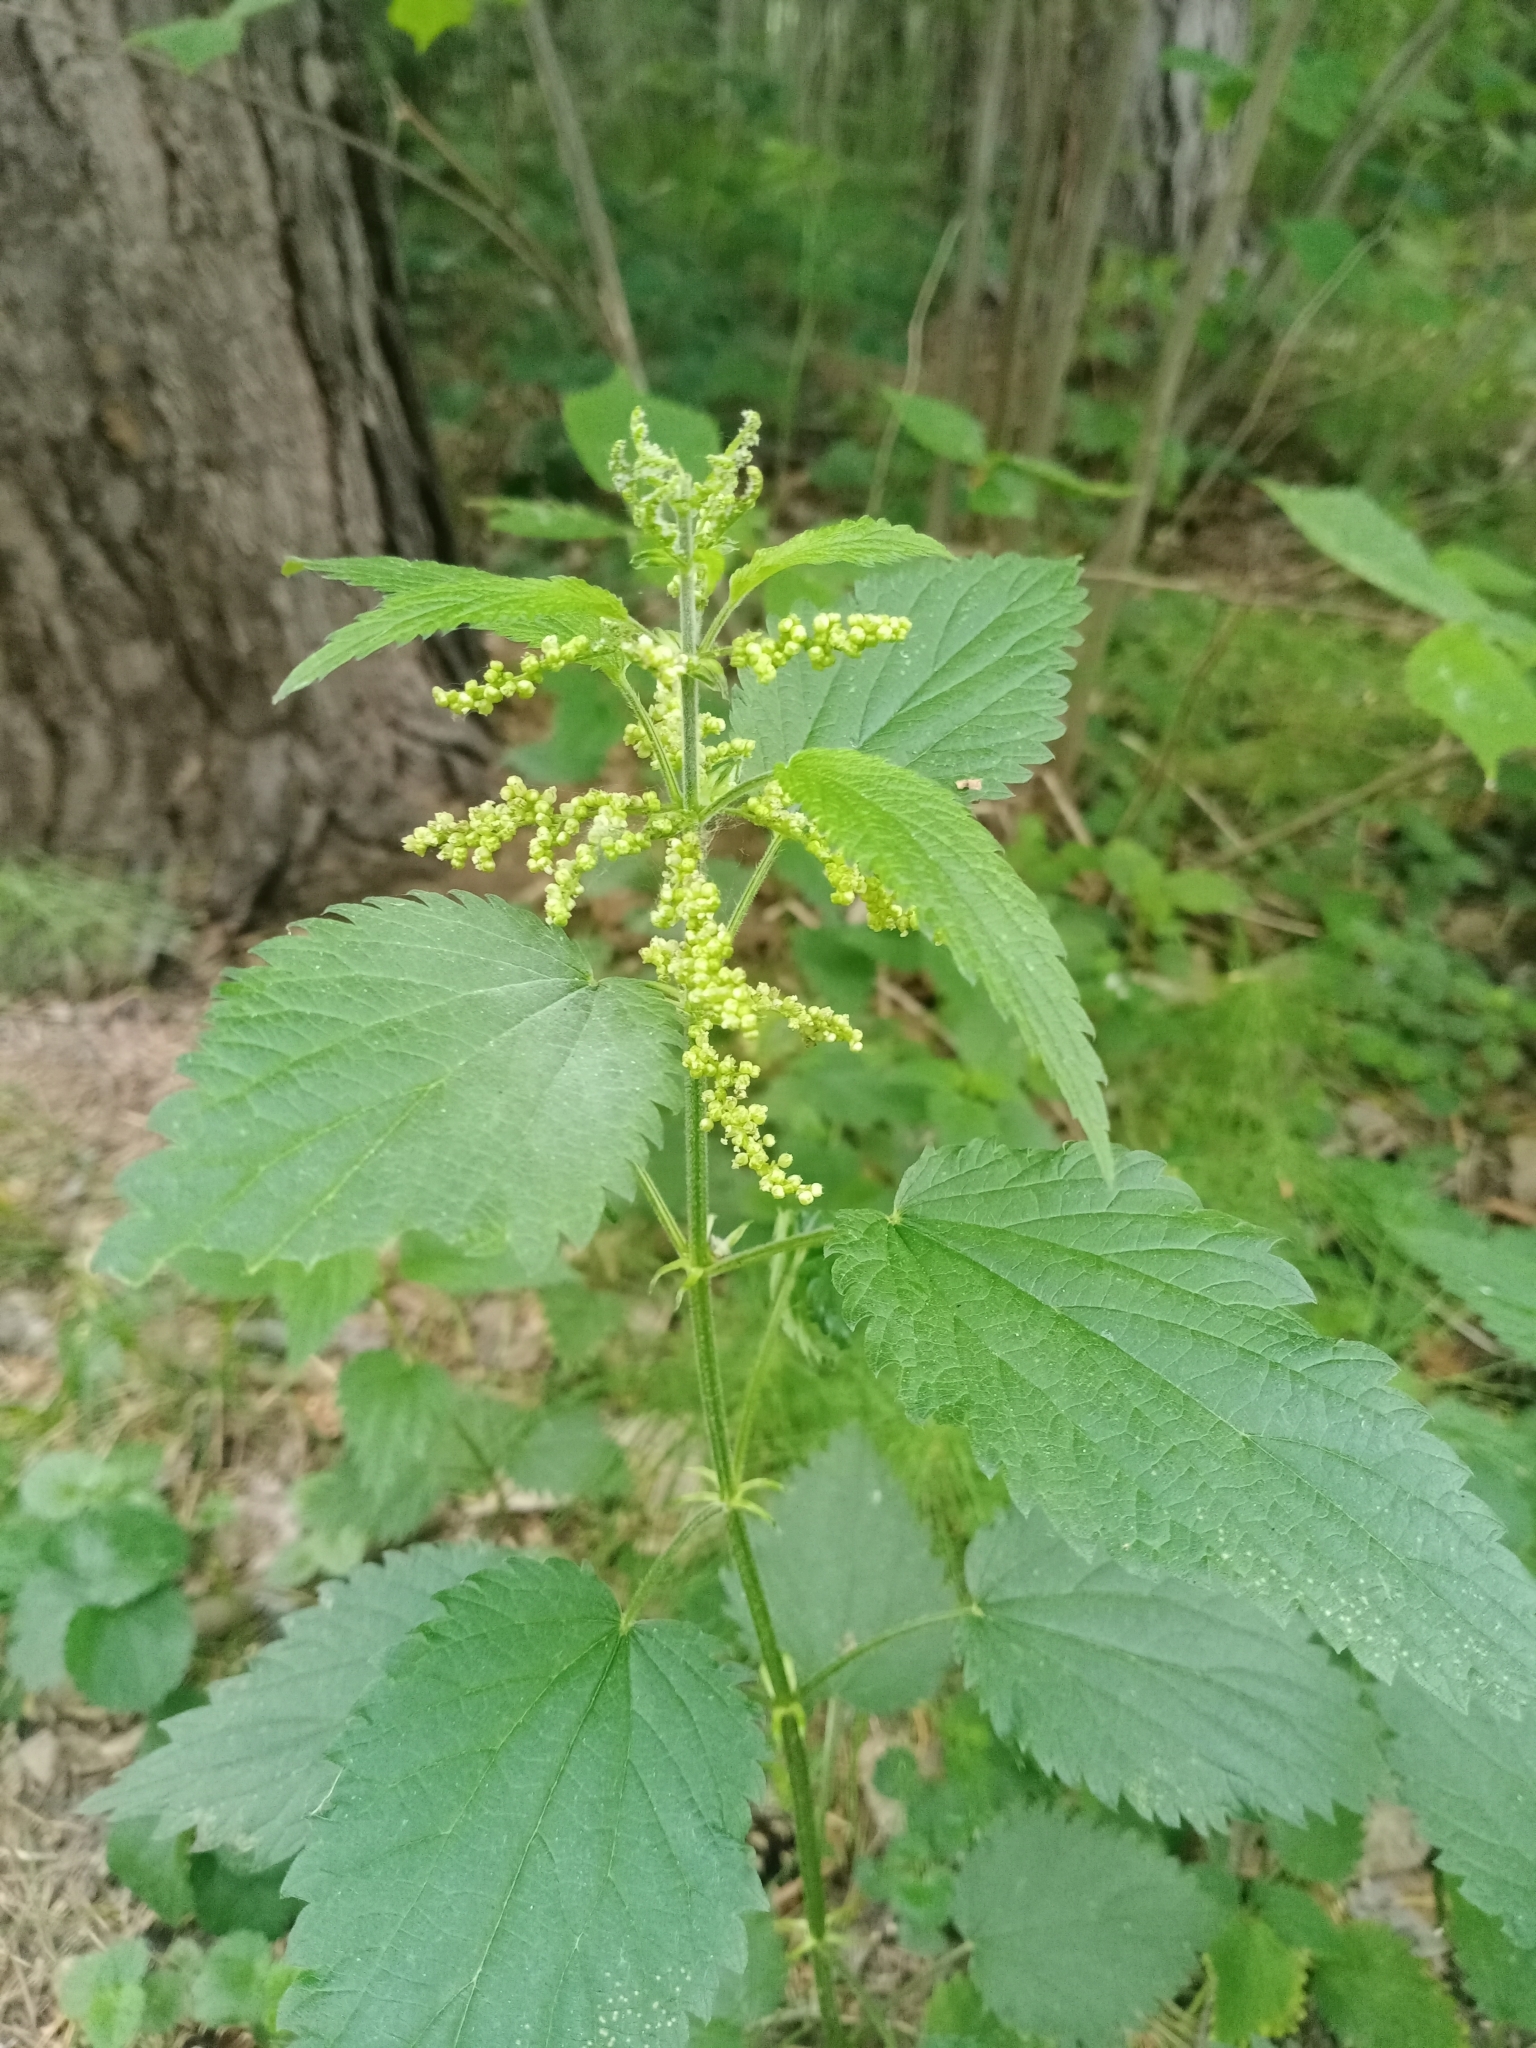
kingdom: Plantae
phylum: Tracheophyta
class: Magnoliopsida
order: Rosales
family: Urticaceae
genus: Urtica
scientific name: Urtica dioica
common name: Common nettle
